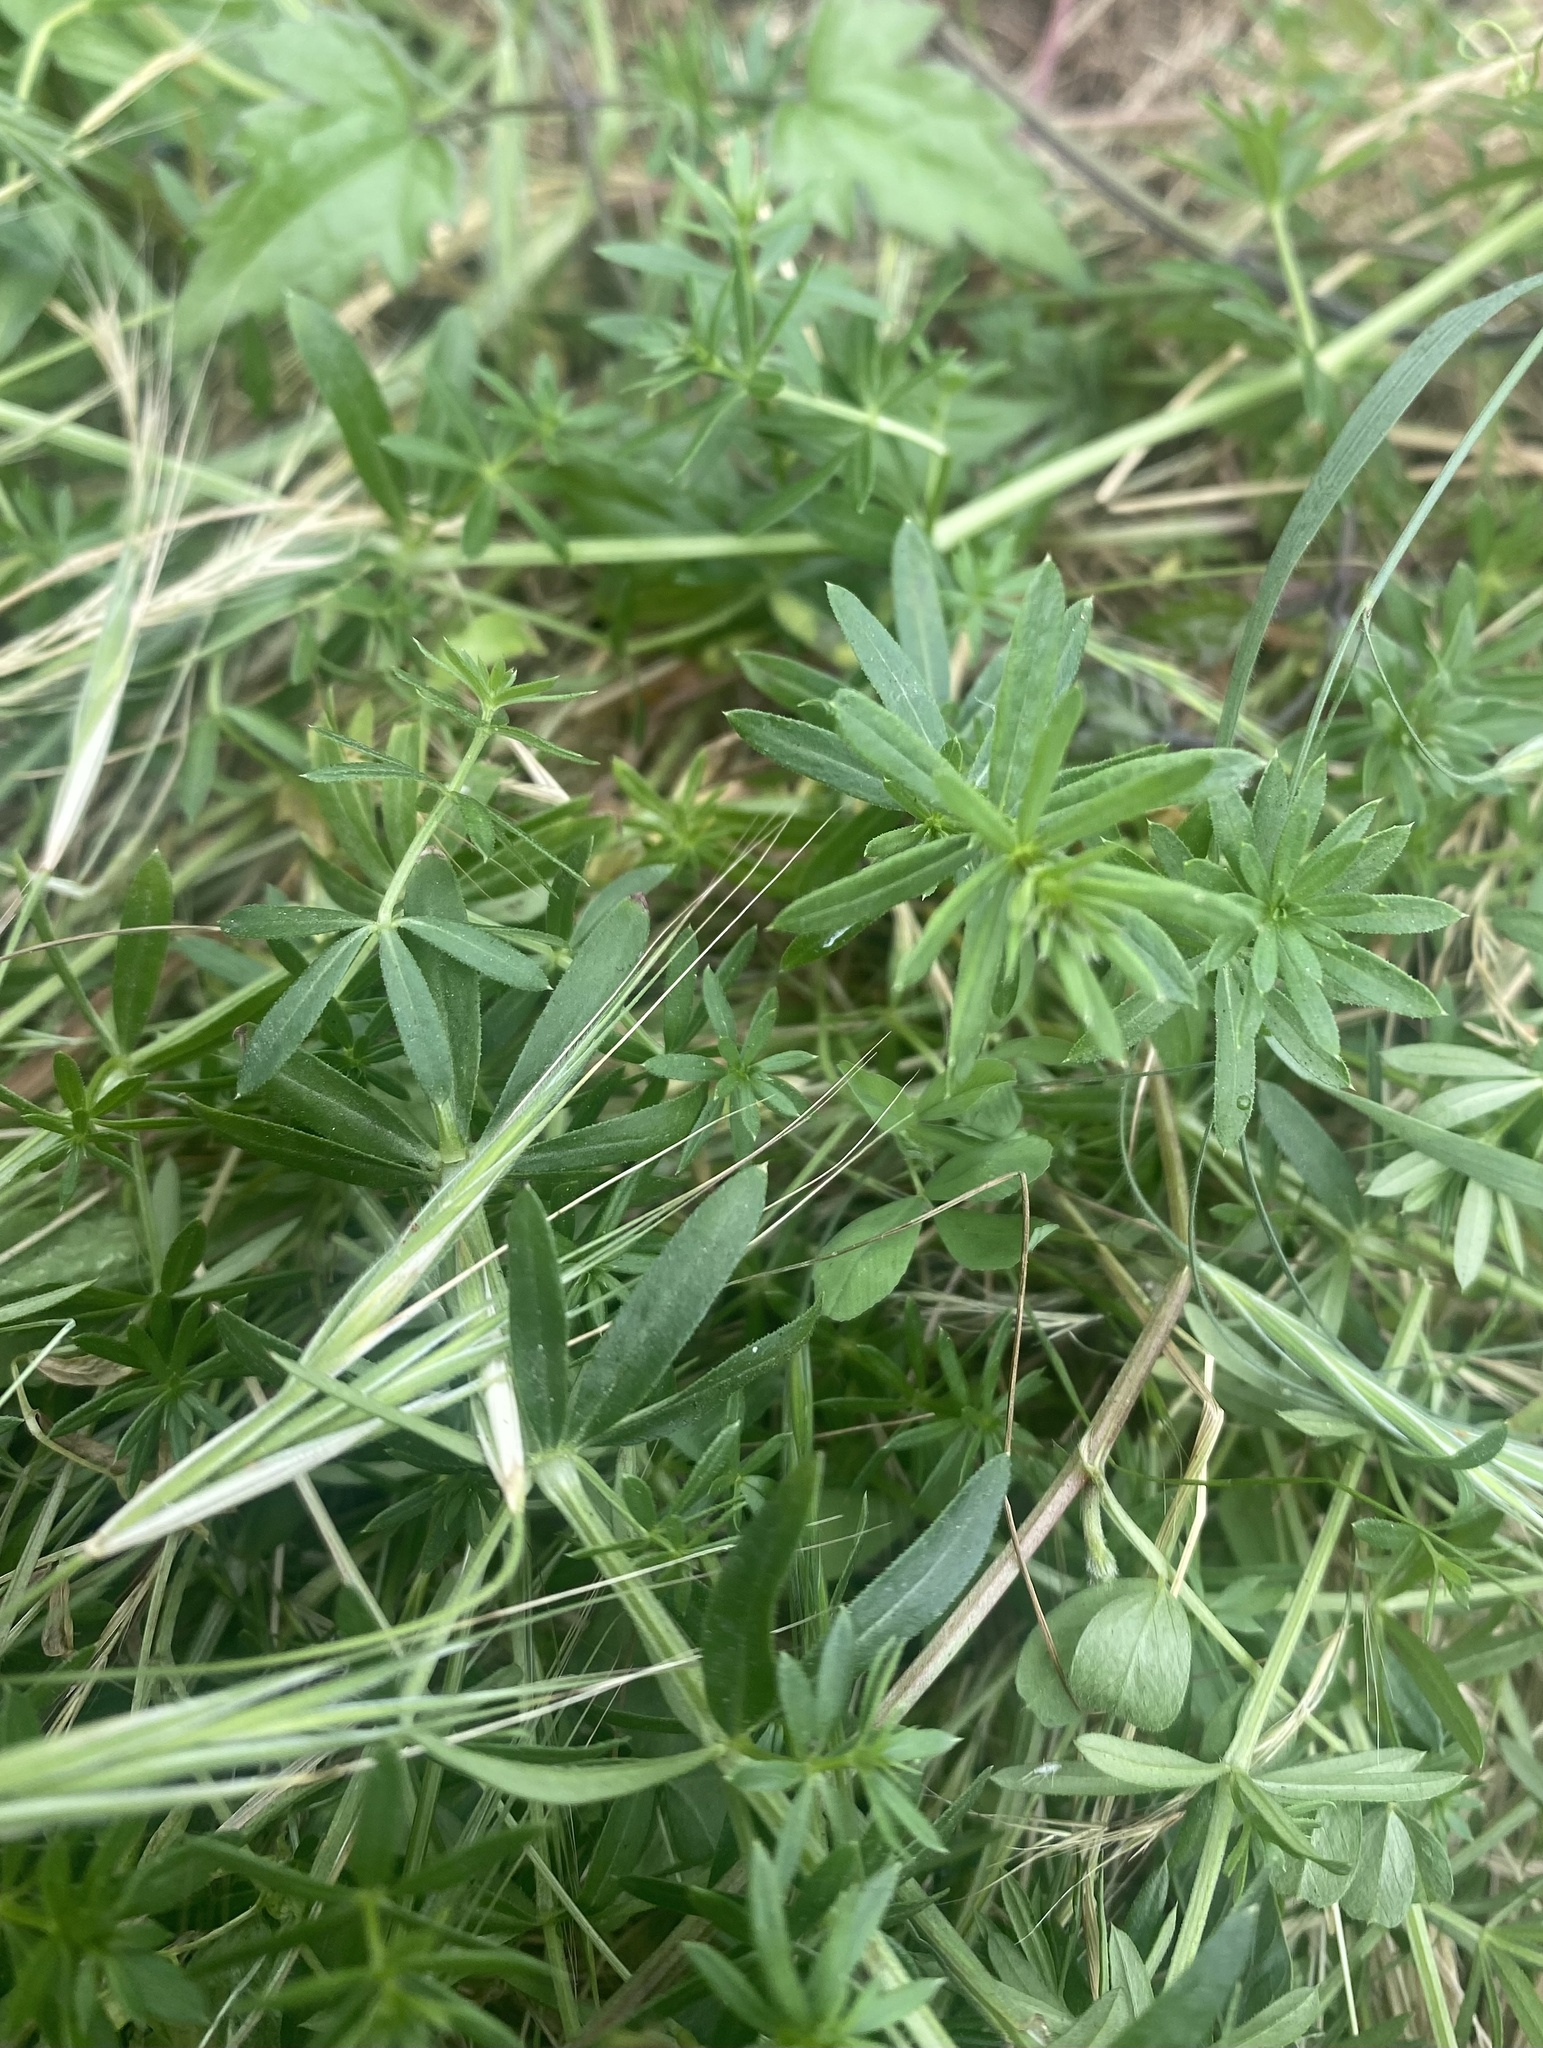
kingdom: Plantae
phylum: Tracheophyta
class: Magnoliopsida
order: Gentianales
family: Rubiaceae
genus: Galium
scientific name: Galium mollugo
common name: Hedge bedstraw
